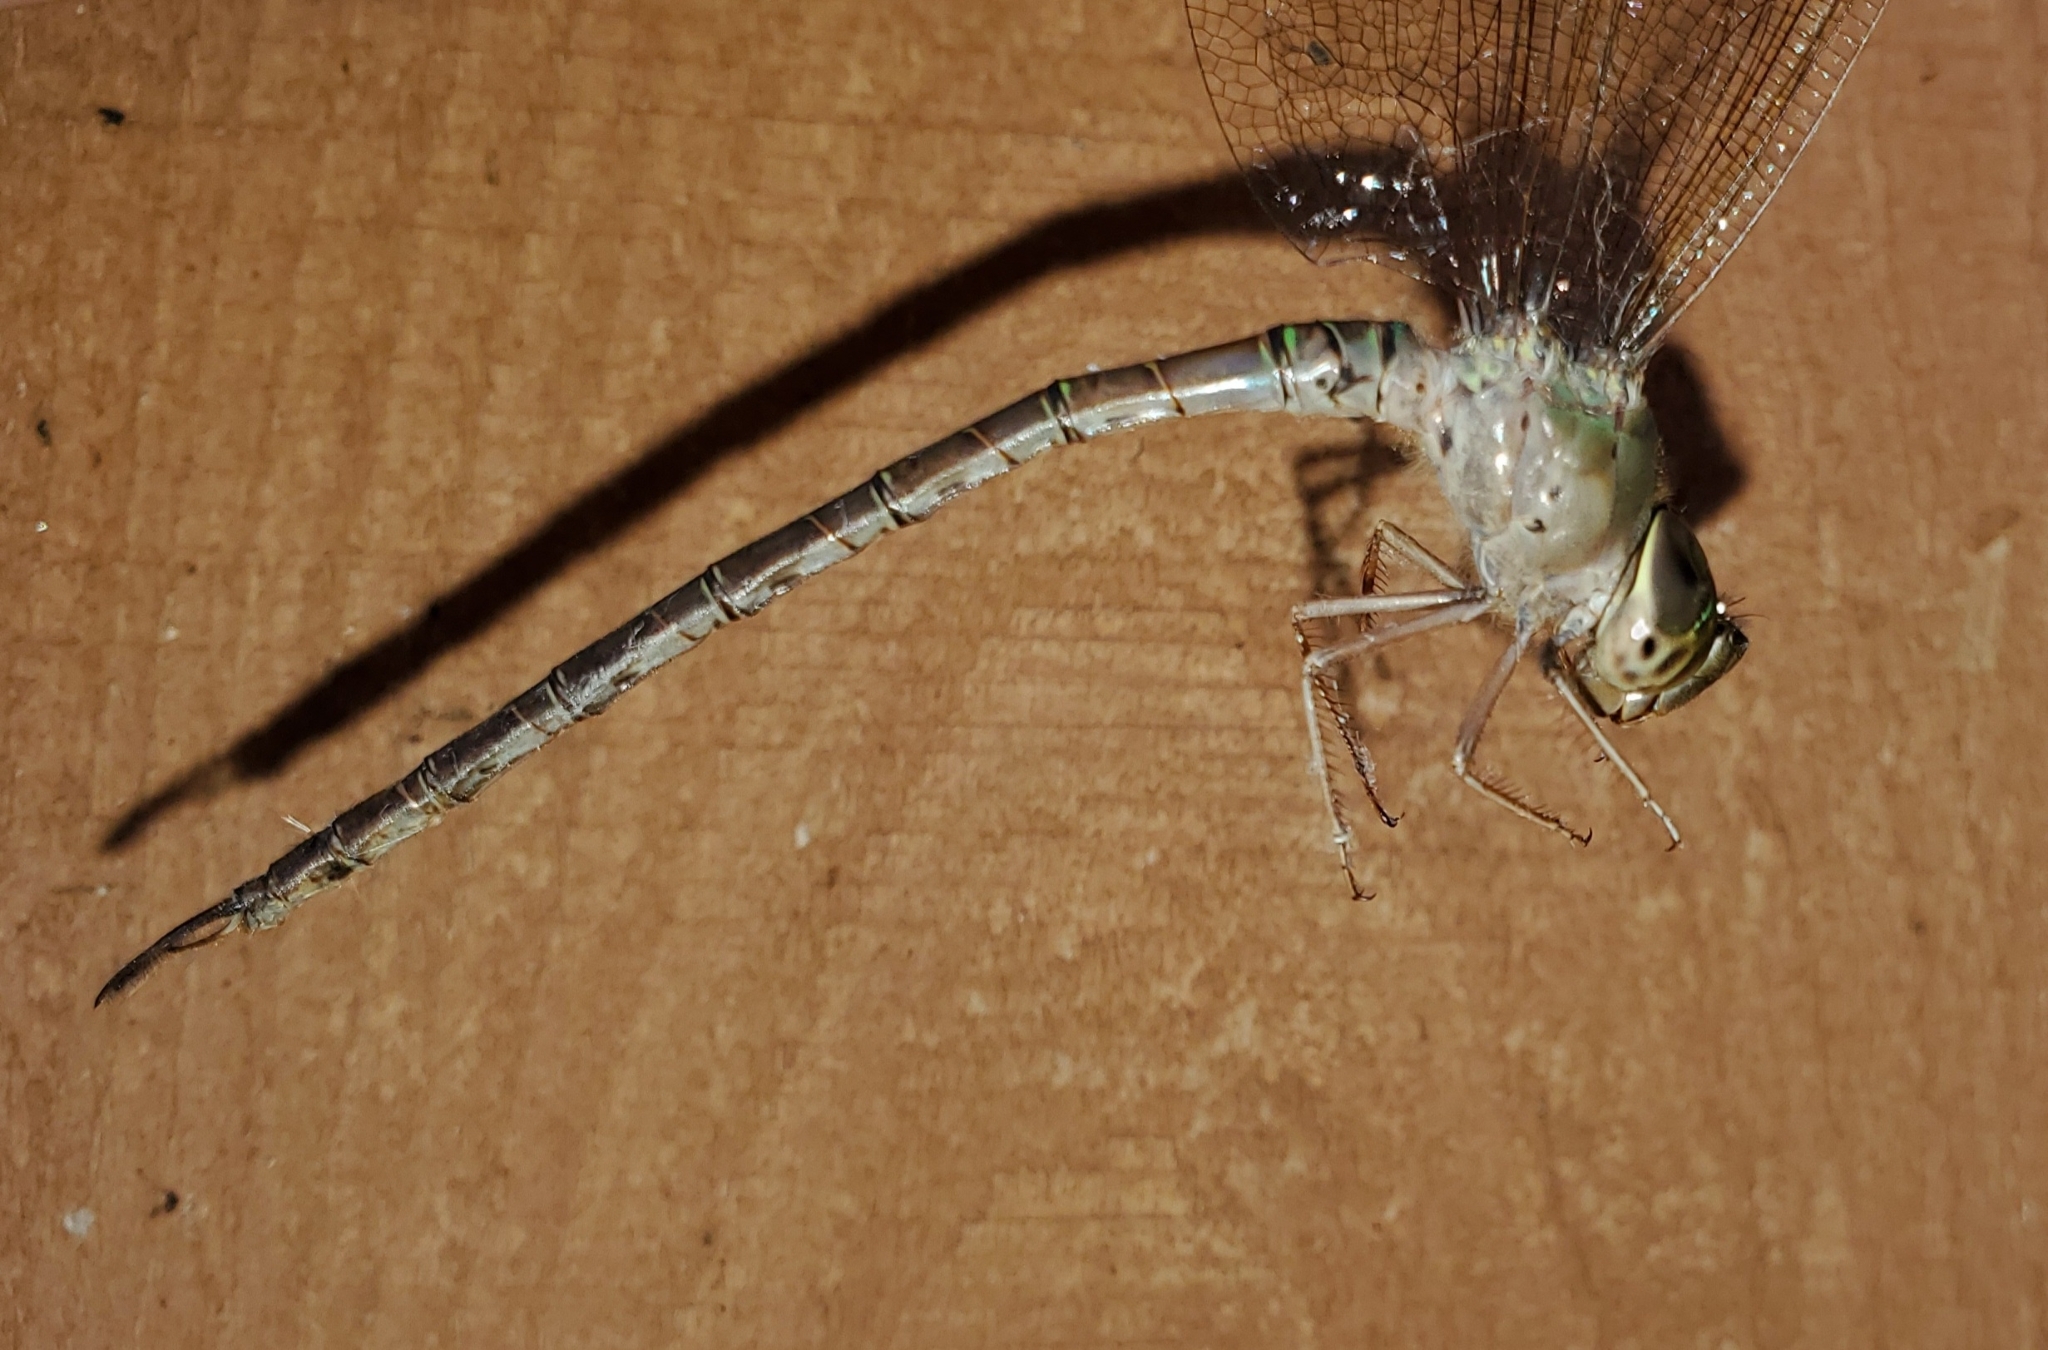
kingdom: Animalia
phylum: Arthropoda
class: Insecta
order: Odonata
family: Aeshnidae
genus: Gynacantha
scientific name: Gynacantha nervosa
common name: Twilight darner
